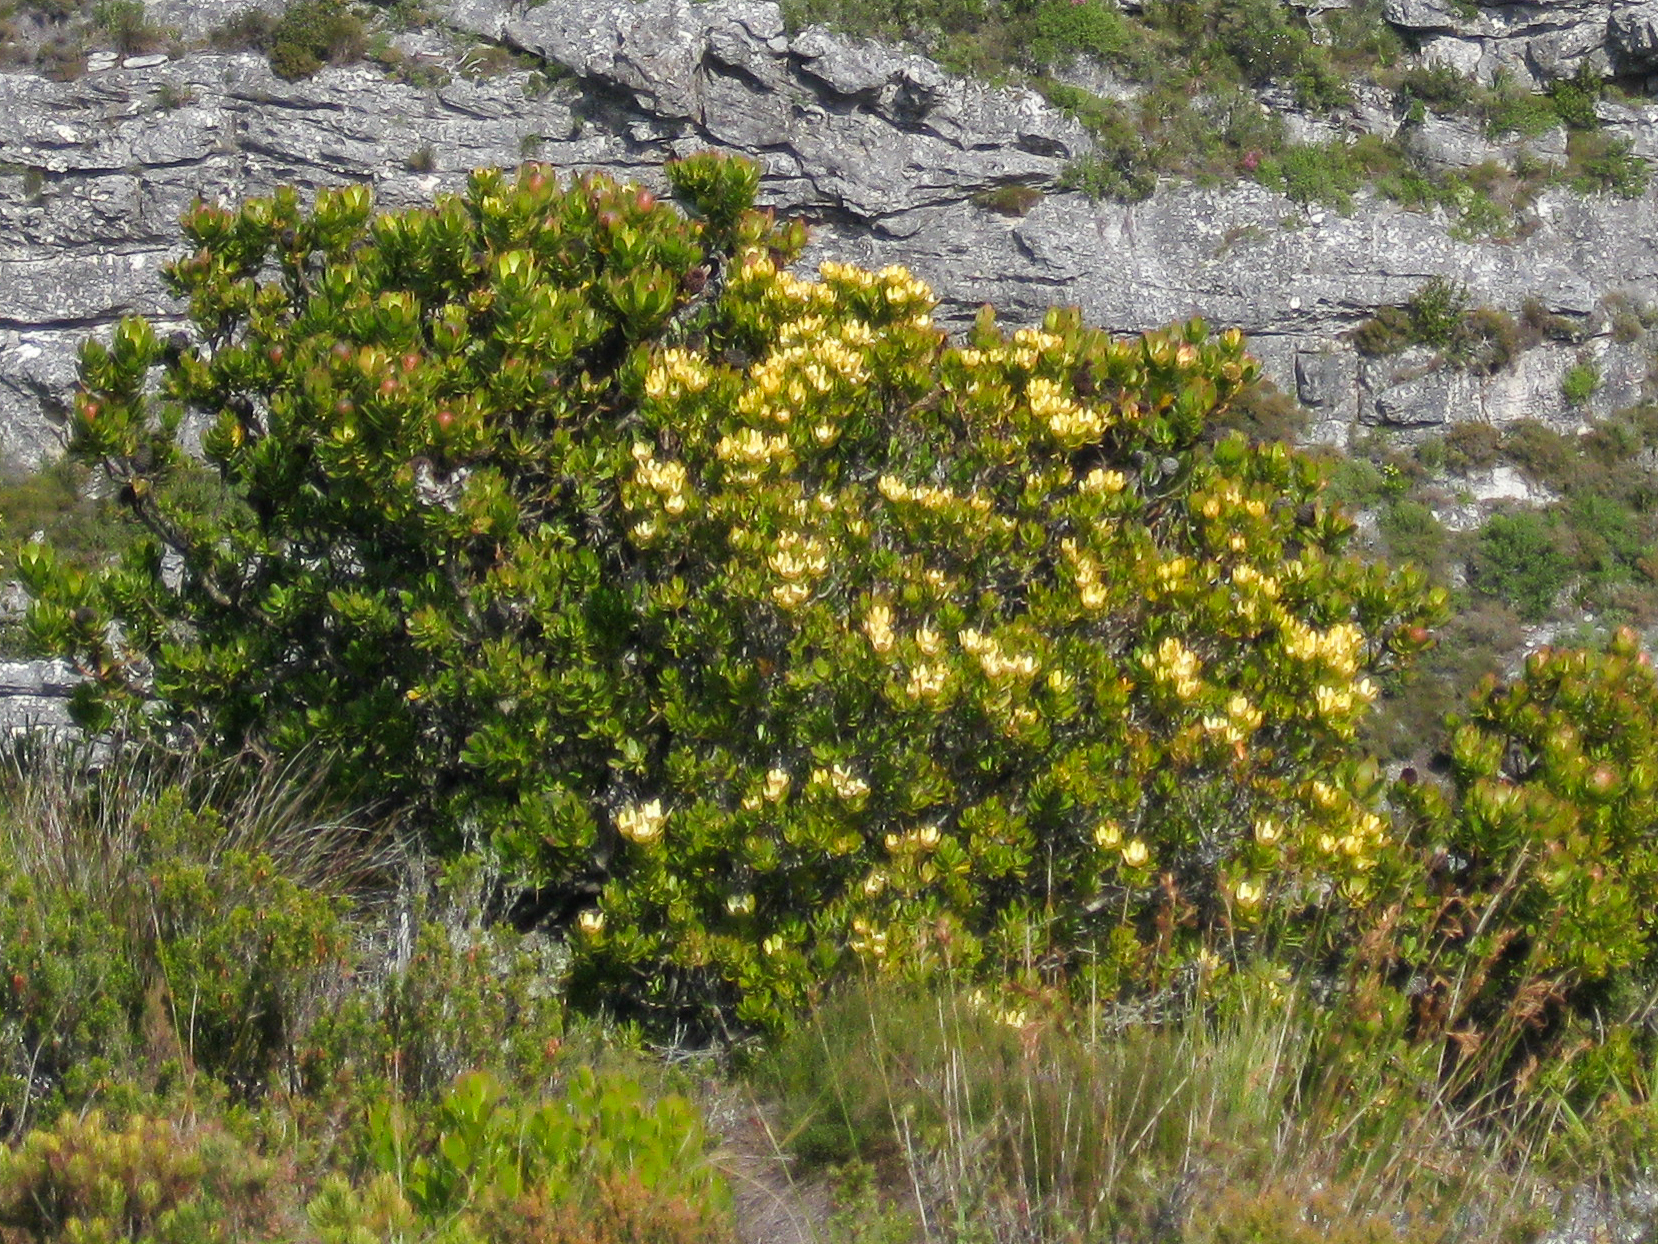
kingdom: Plantae
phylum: Tracheophyta
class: Magnoliopsida
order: Proteales
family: Proteaceae
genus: Leucadendron
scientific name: Leucadendron strobilinum
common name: Mountain rose
